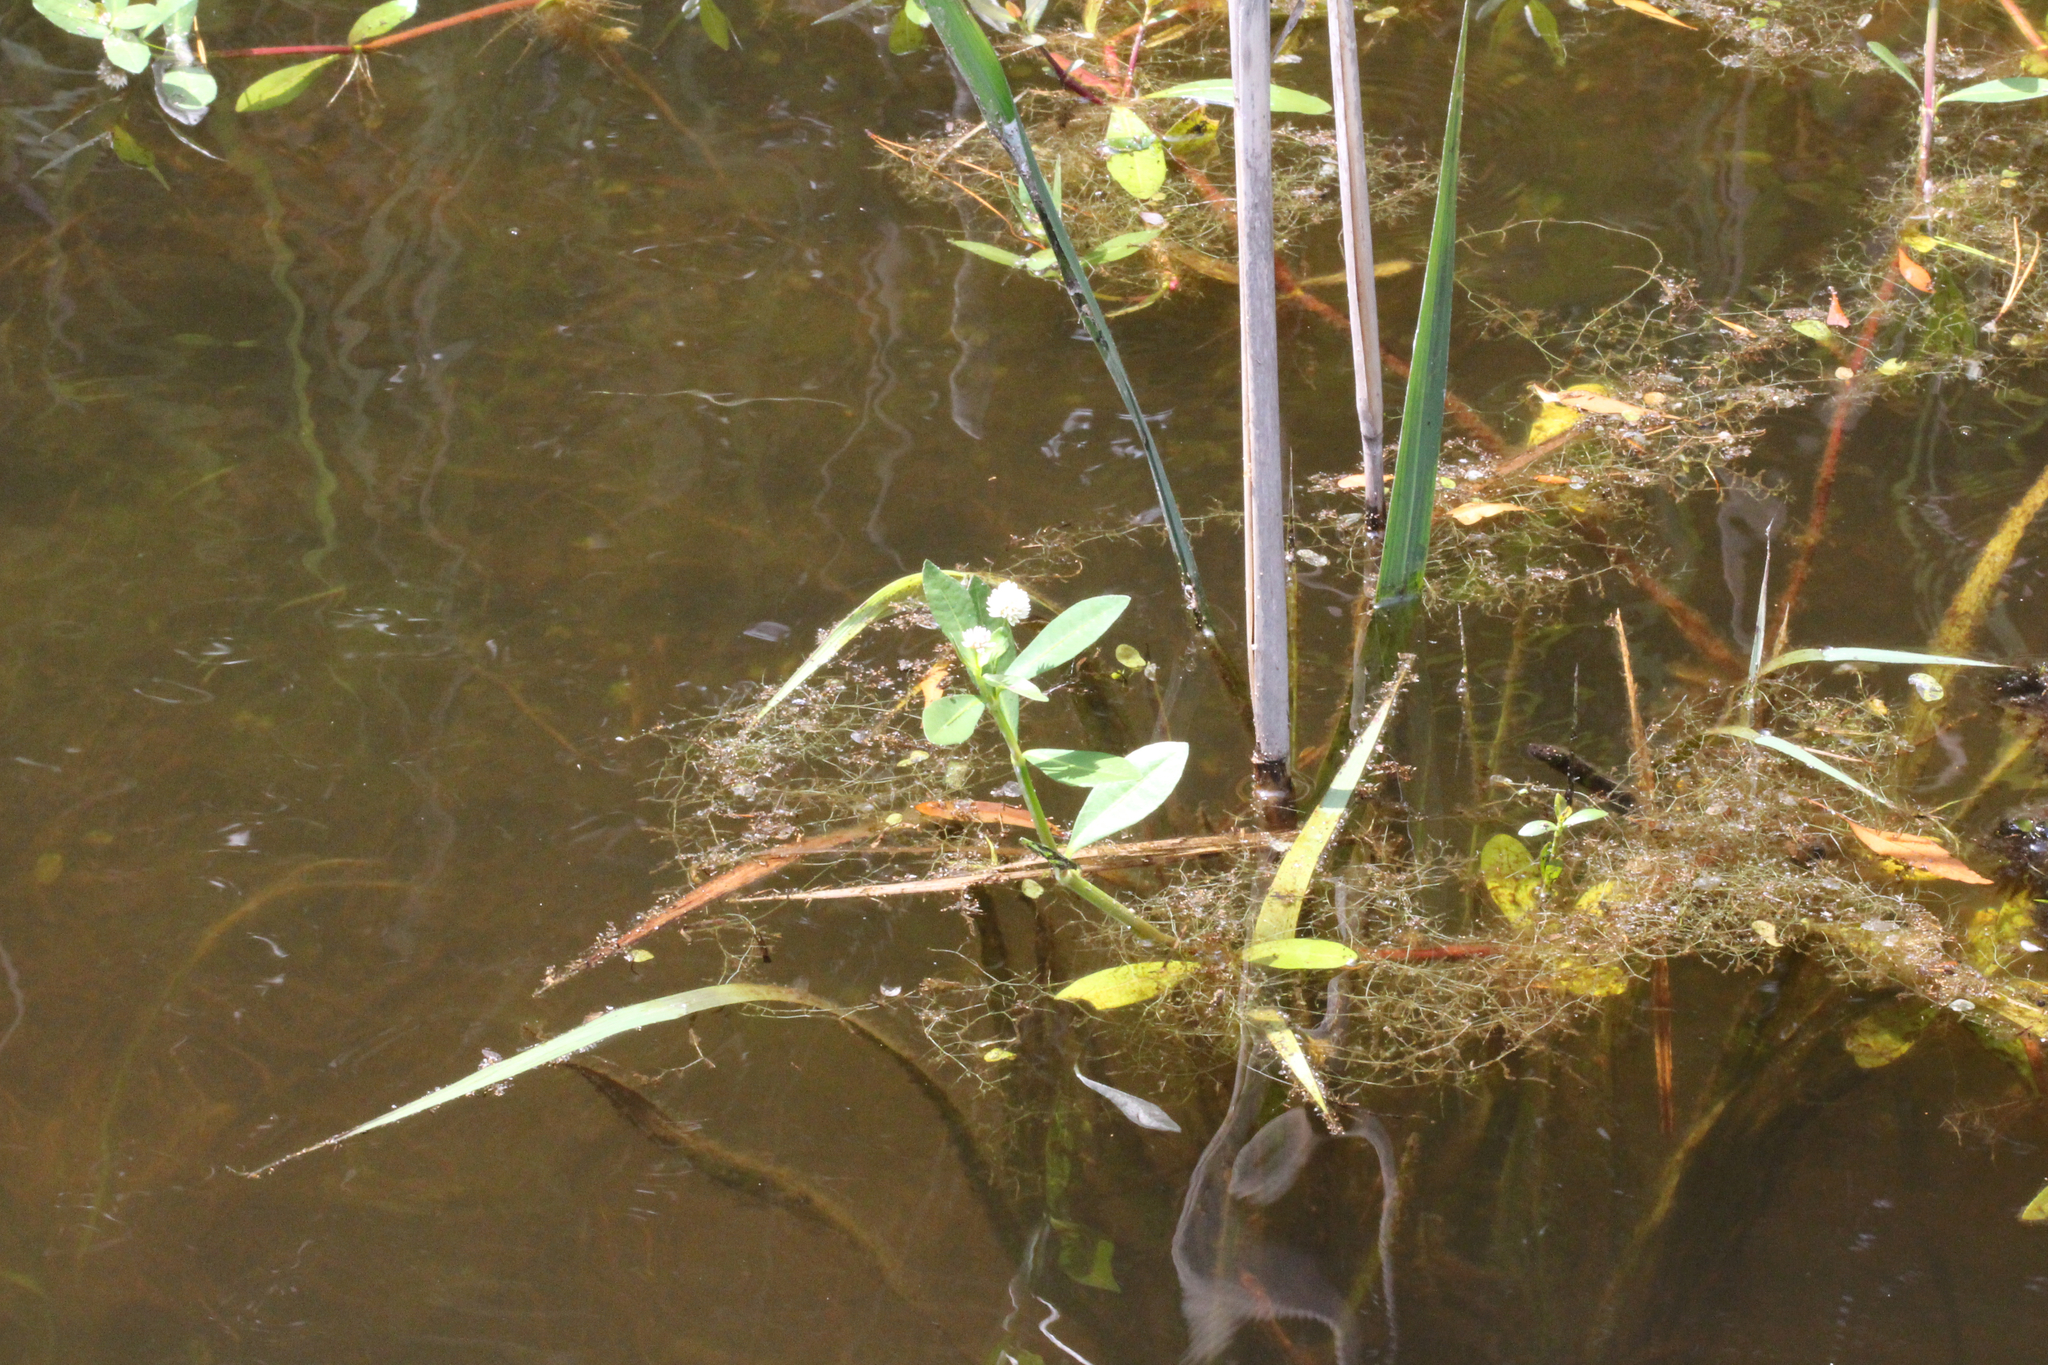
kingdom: Plantae
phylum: Tracheophyta
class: Magnoliopsida
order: Caryophyllales
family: Amaranthaceae
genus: Alternanthera
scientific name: Alternanthera philoxeroides
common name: Alligatorweed
